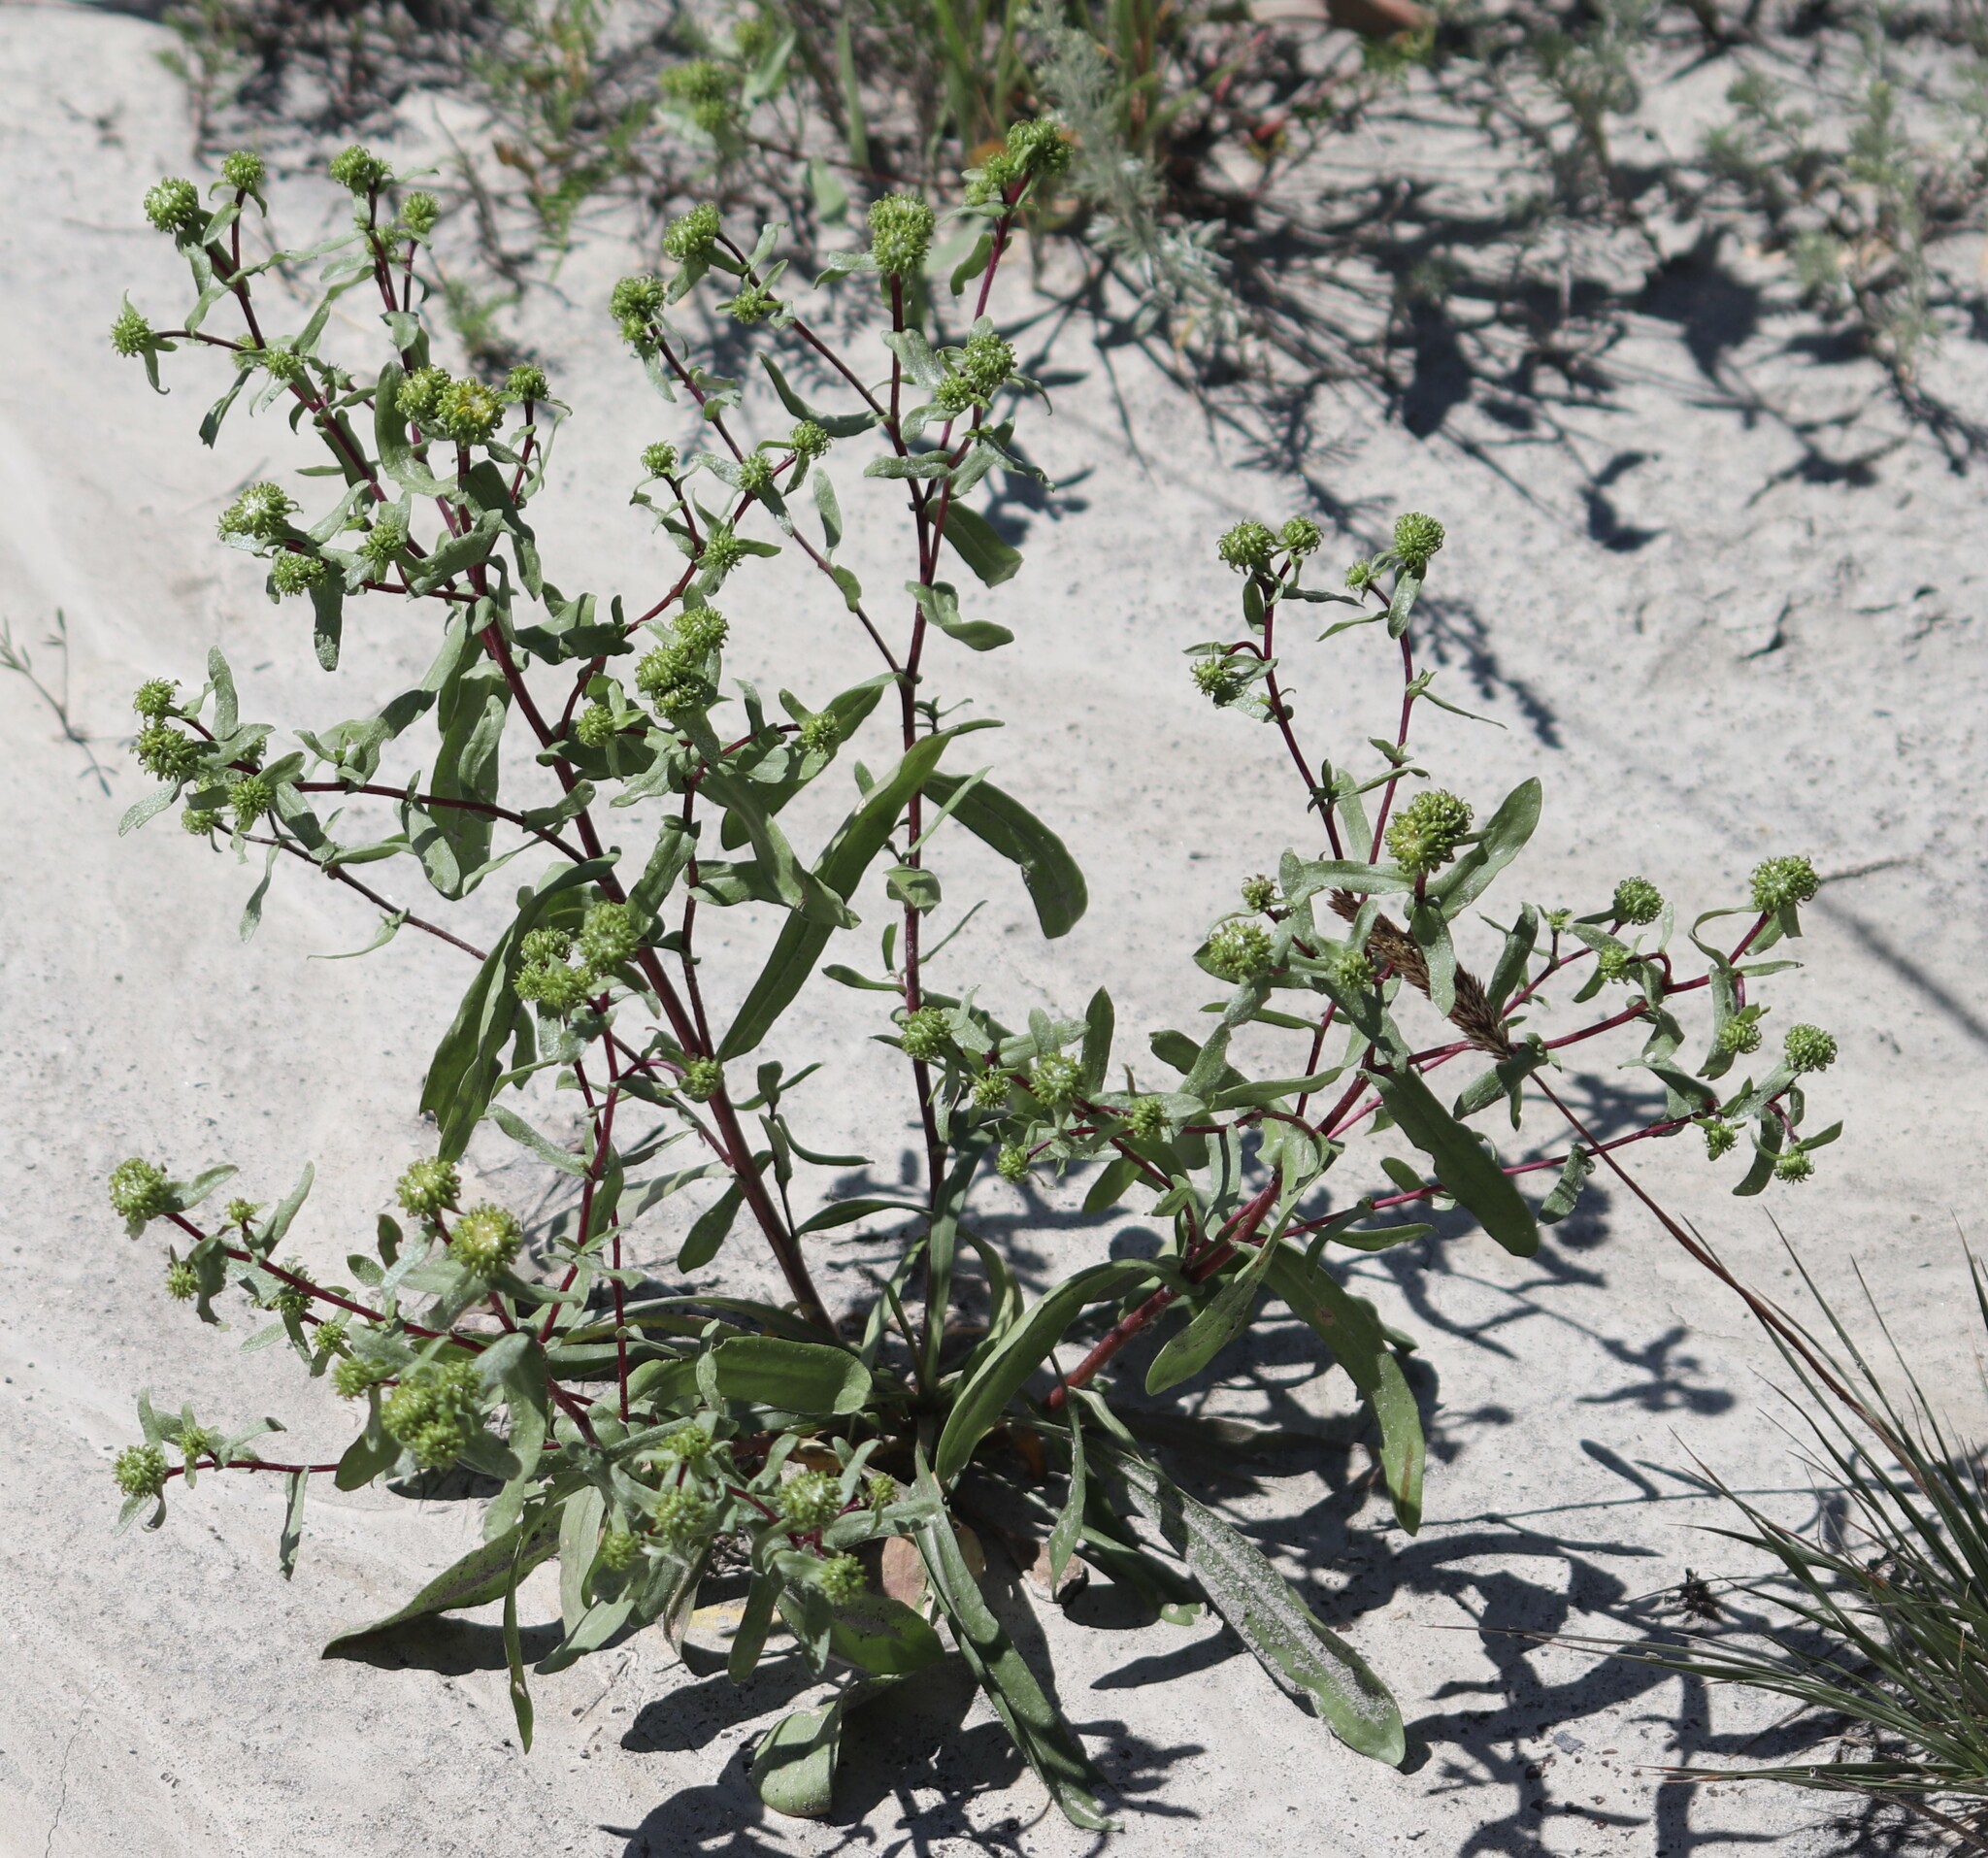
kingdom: Plantae
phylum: Tracheophyta
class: Magnoliopsida
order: Asterales
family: Asteraceae
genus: Grindelia
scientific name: Grindelia squarrosa
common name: Curly-cup gumweed
